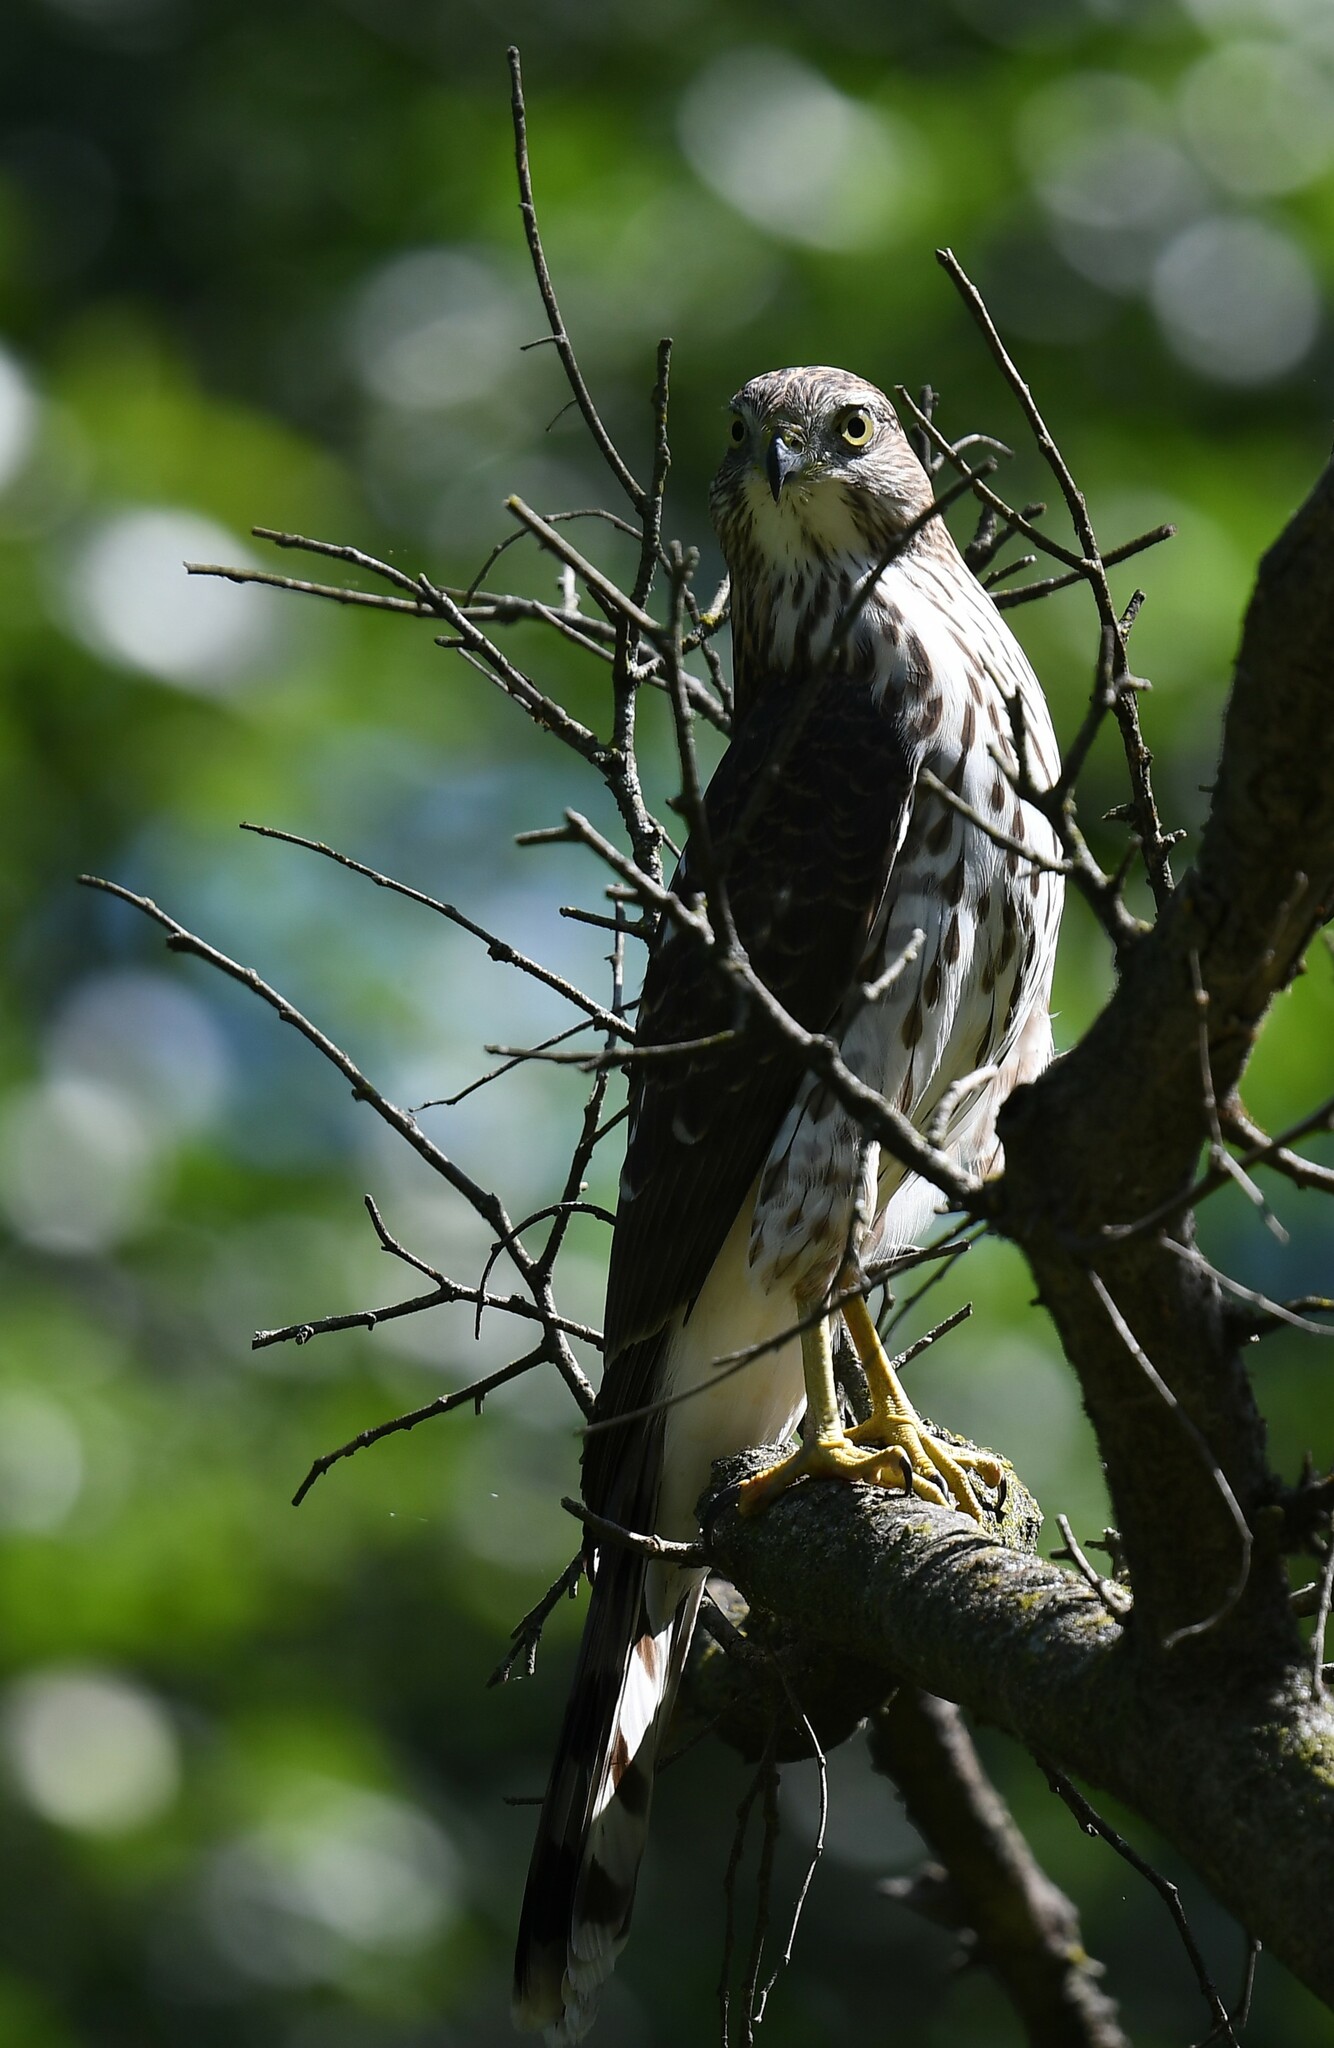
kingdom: Animalia
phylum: Chordata
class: Aves
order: Accipitriformes
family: Accipitridae
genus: Accipiter
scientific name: Accipiter cooperii
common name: Cooper's hawk
